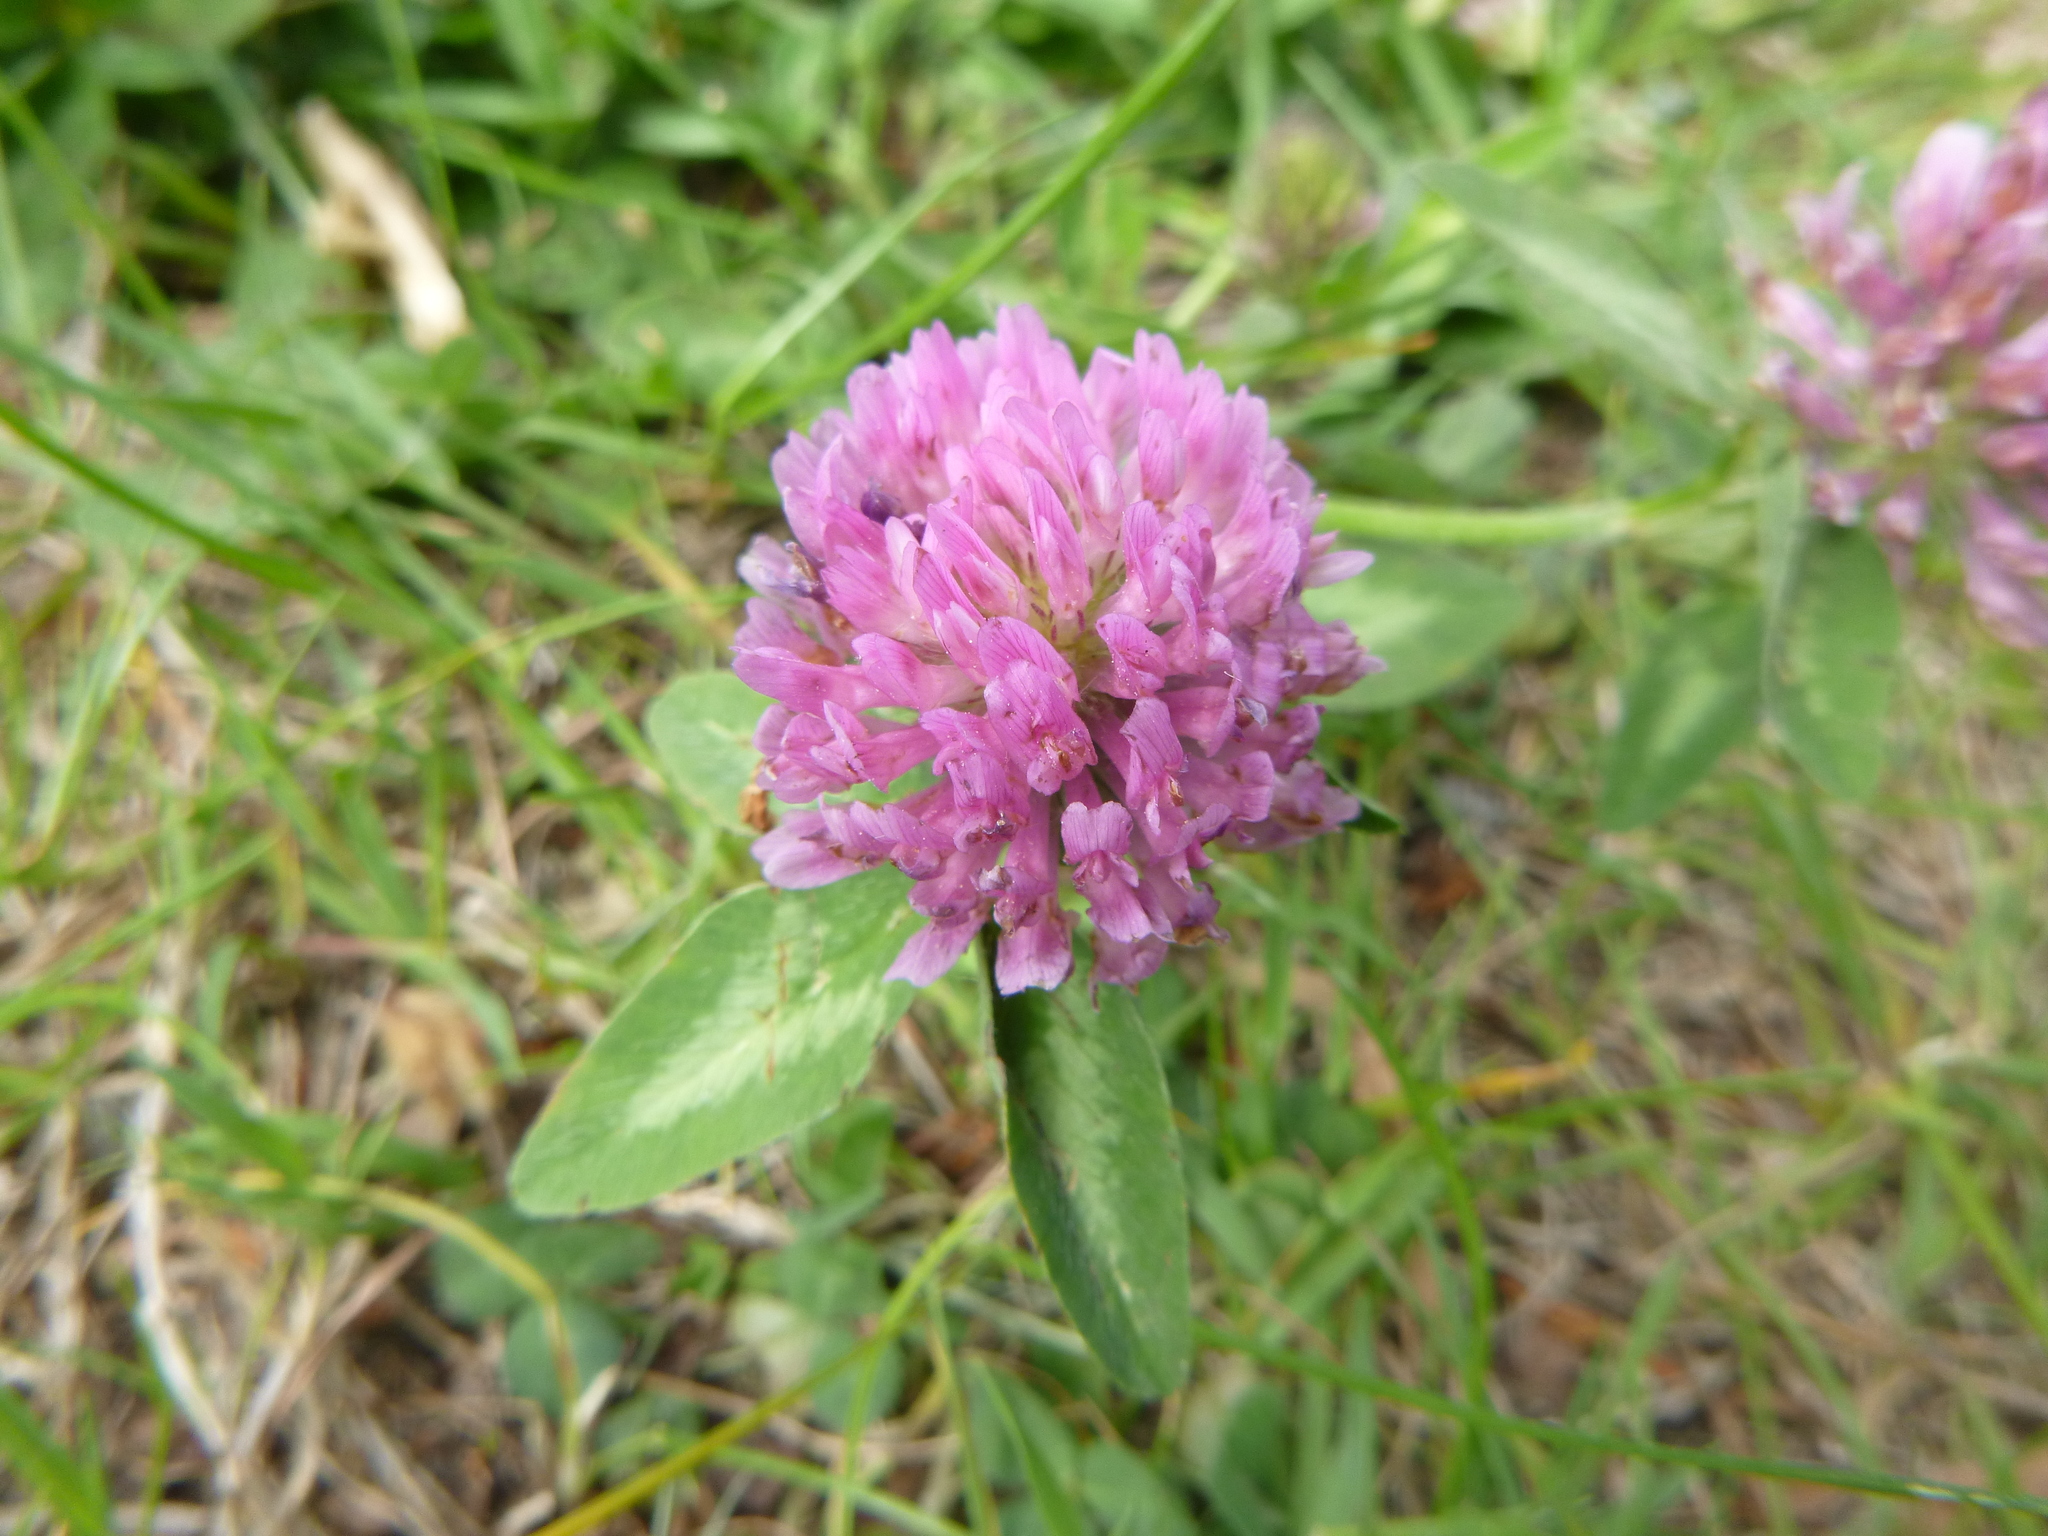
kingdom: Plantae
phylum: Tracheophyta
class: Magnoliopsida
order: Fabales
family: Fabaceae
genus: Trifolium
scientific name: Trifolium pratense
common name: Red clover
